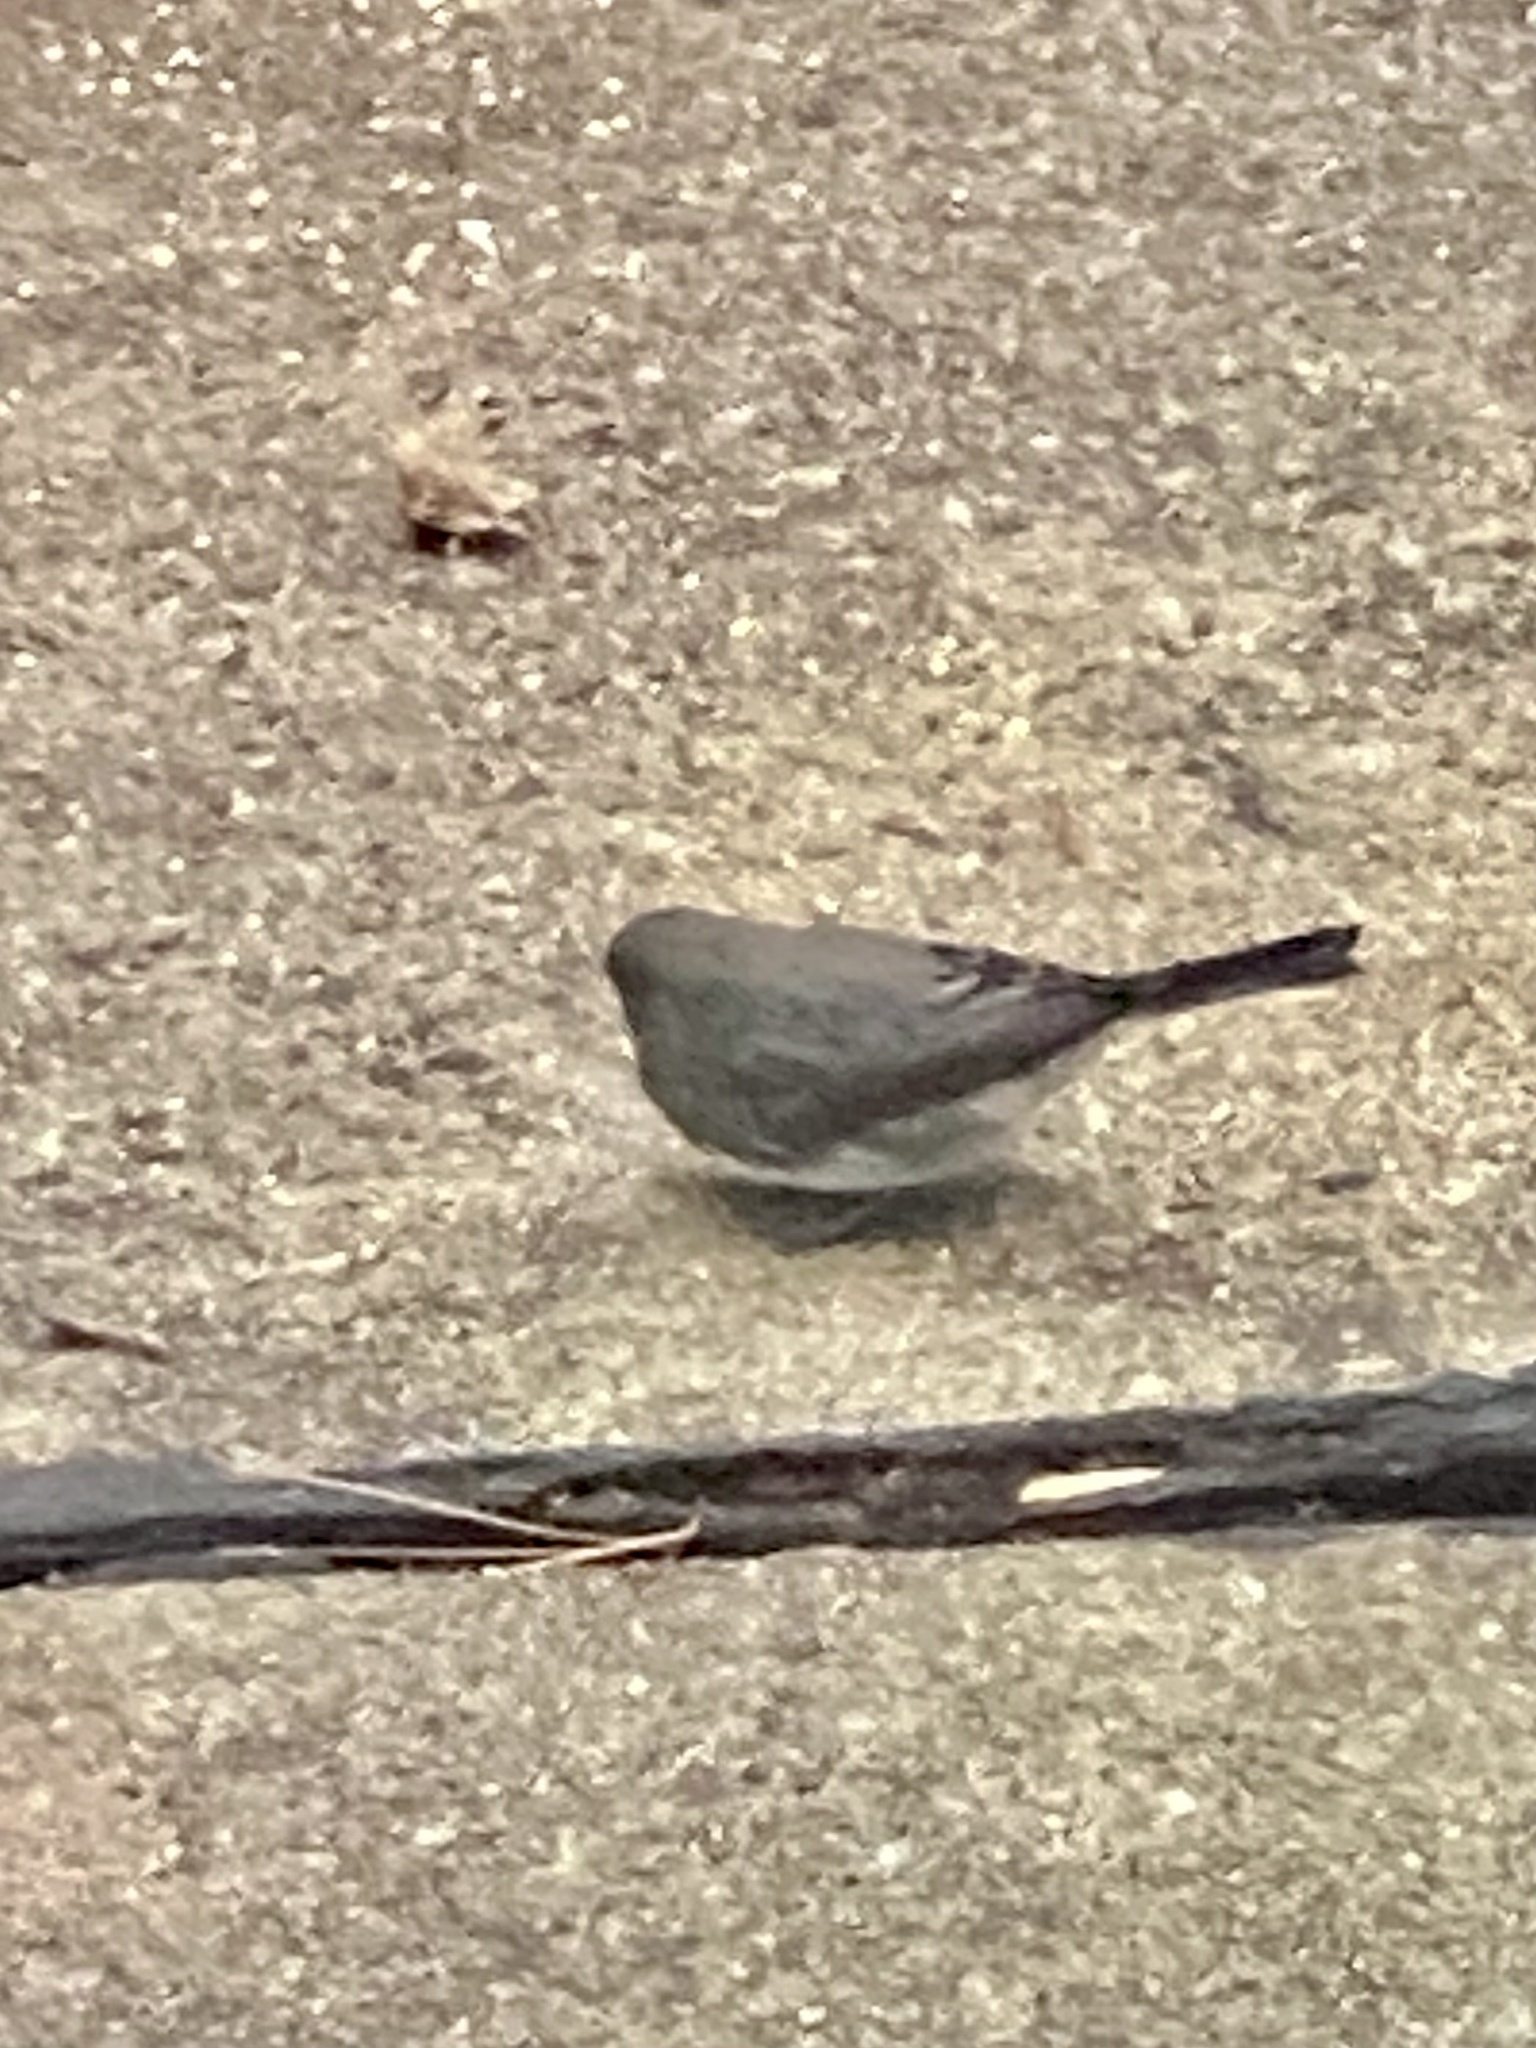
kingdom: Animalia
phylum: Chordata
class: Aves
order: Passeriformes
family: Passerellidae
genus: Junco
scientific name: Junco hyemalis
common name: Dark-eyed junco
